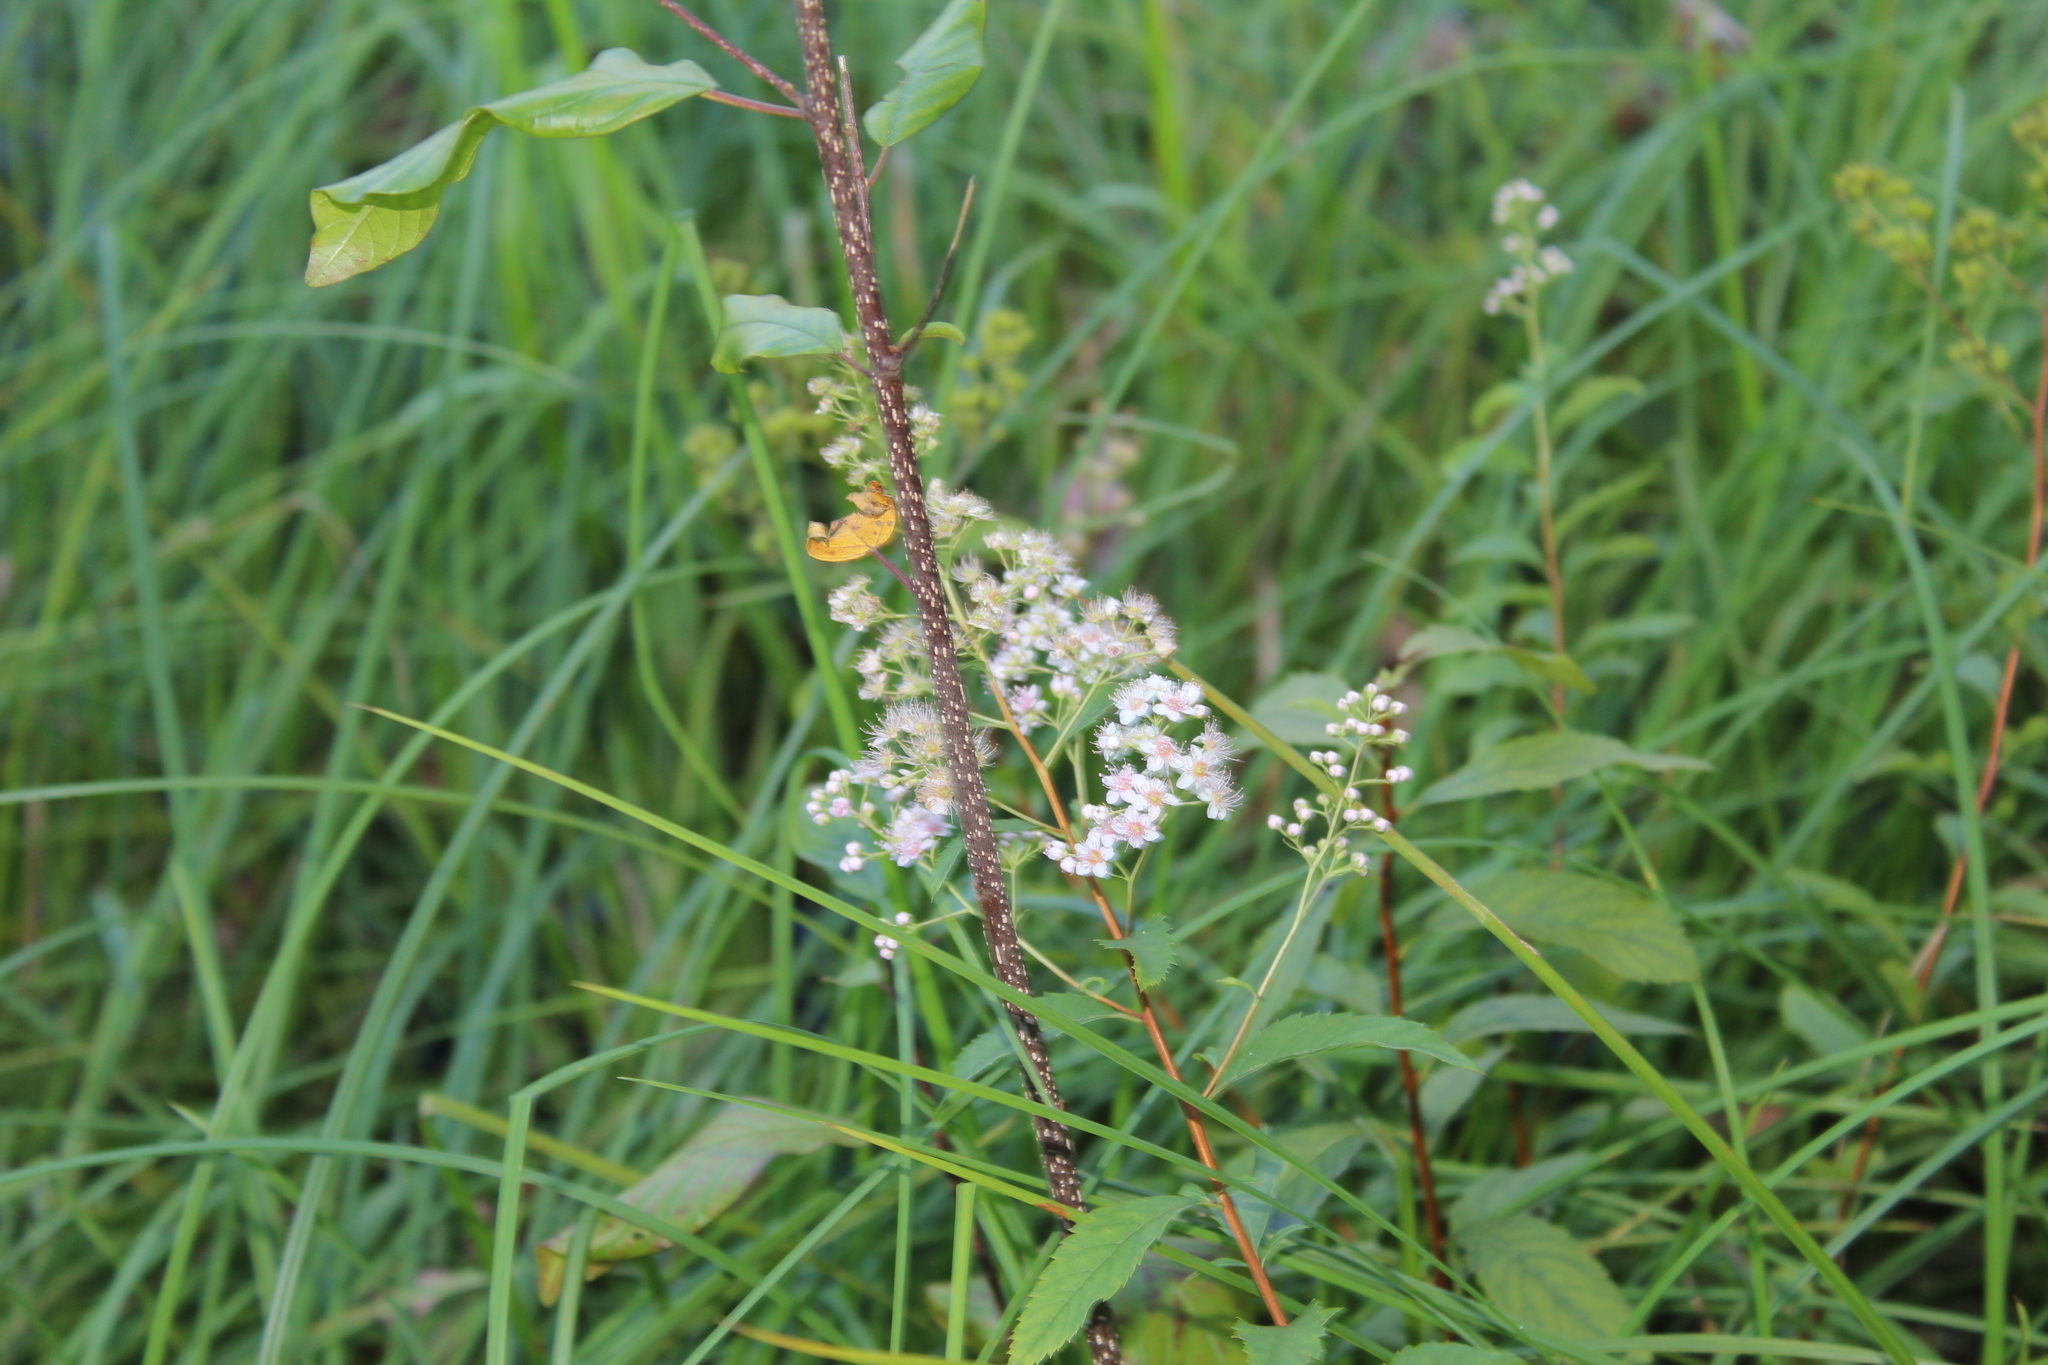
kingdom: Plantae
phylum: Tracheophyta
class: Magnoliopsida
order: Rosales
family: Rosaceae
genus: Spiraea
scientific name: Spiraea alba
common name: Pale bridewort
